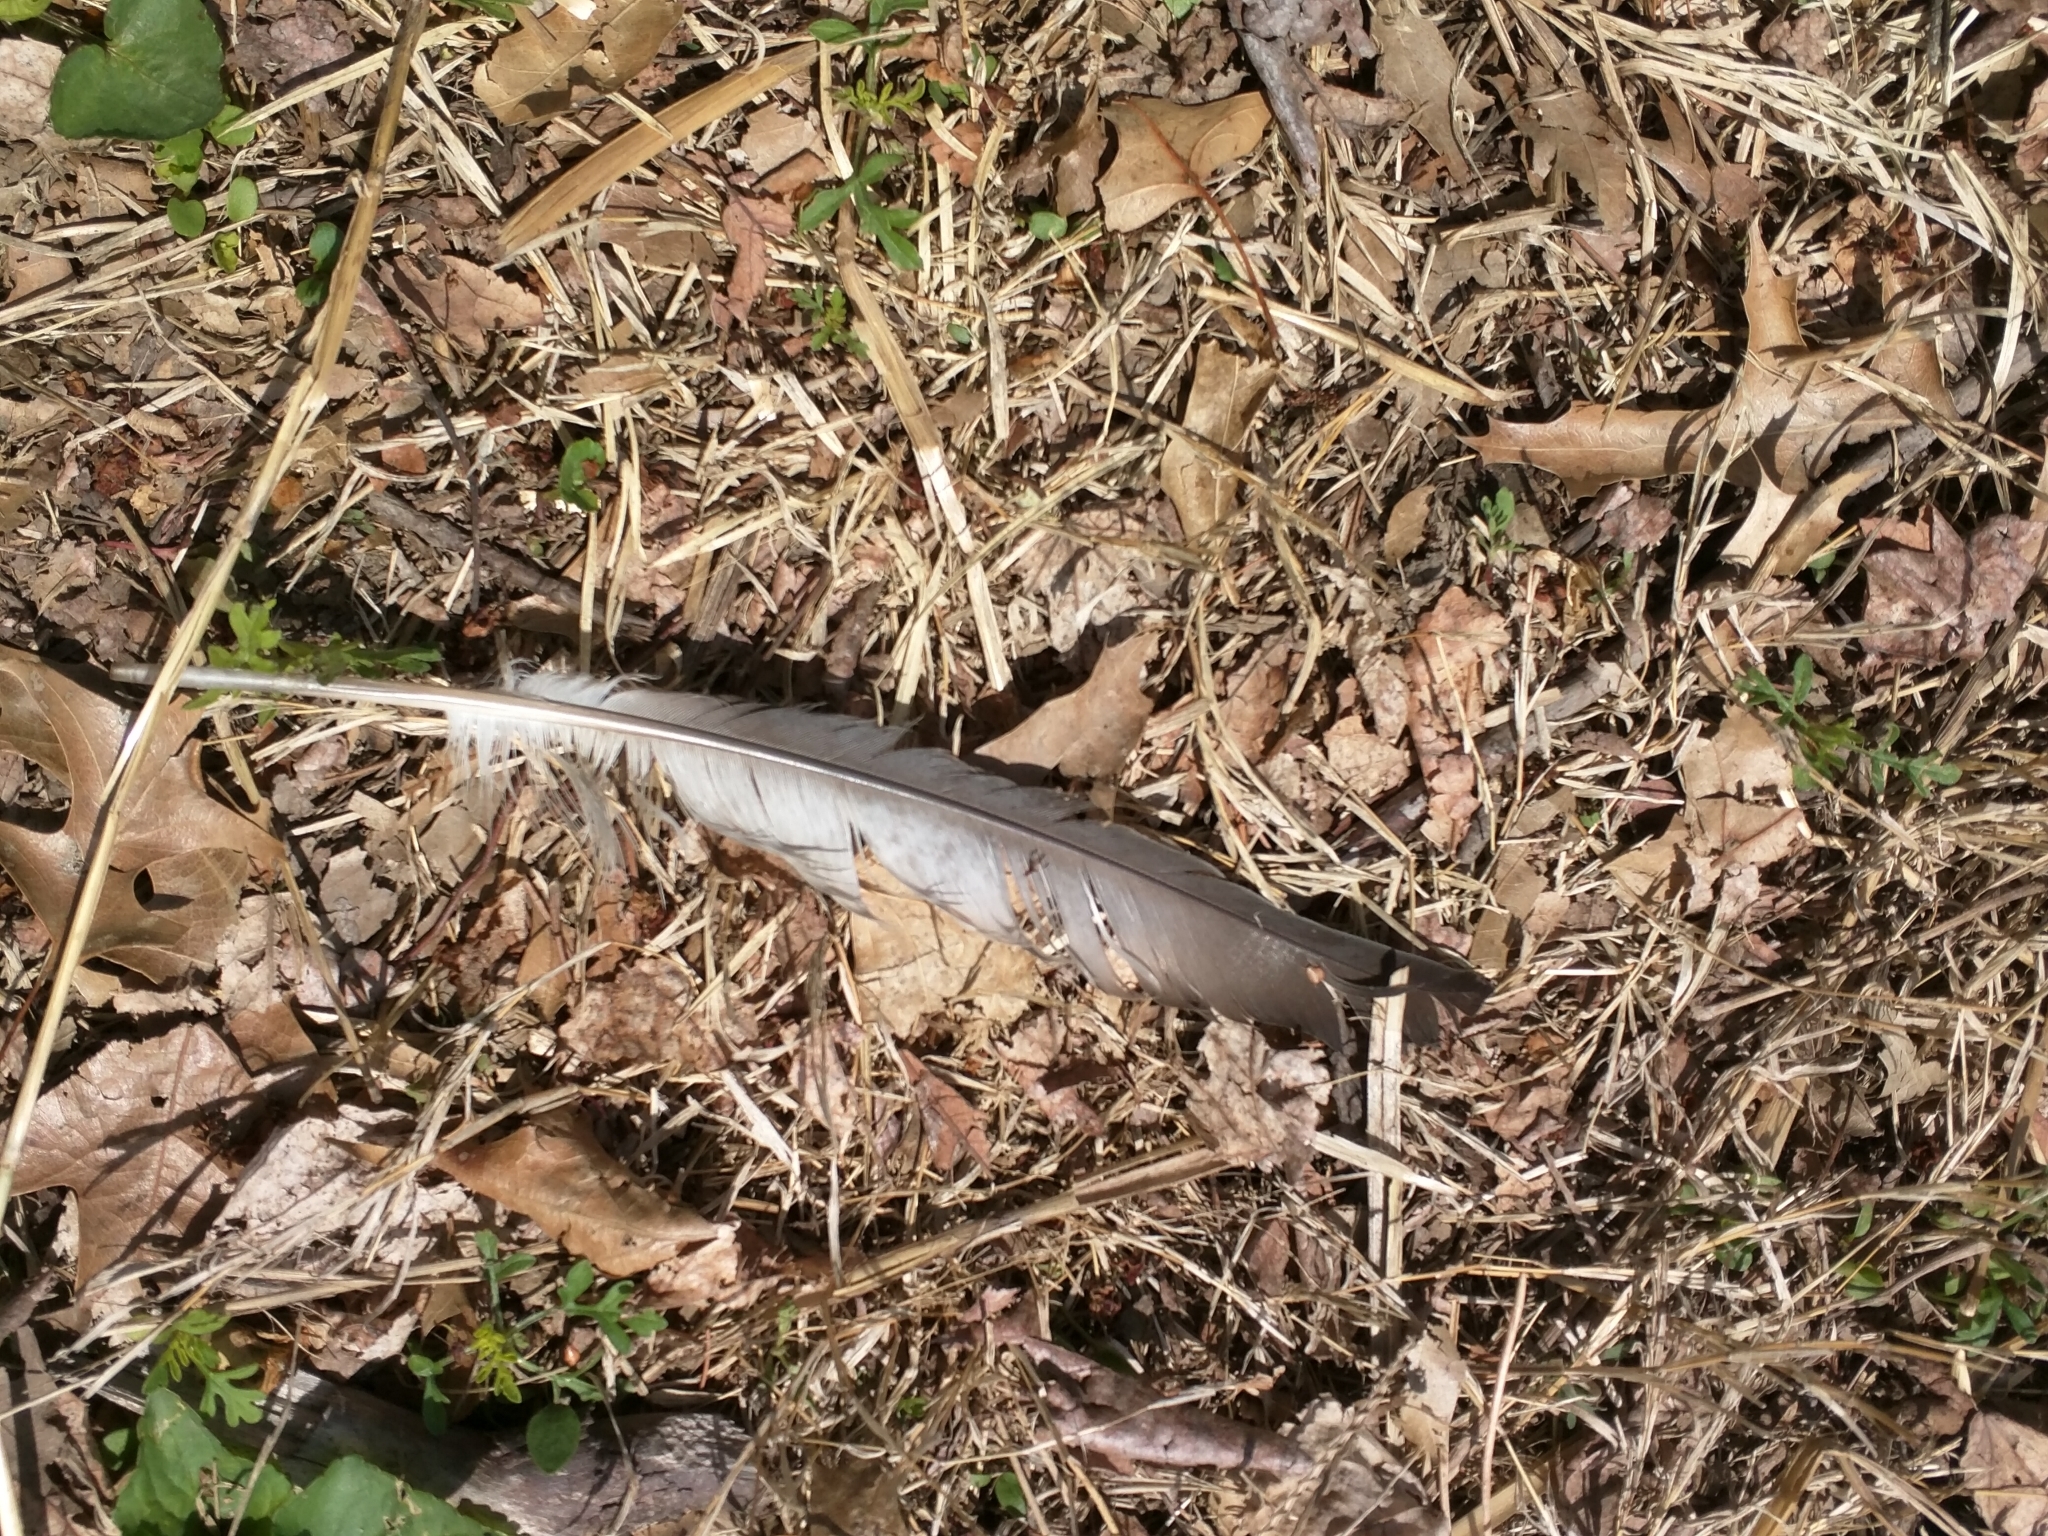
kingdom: Animalia
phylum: Chordata
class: Aves
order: Anseriformes
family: Anatidae
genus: Branta
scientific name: Branta canadensis
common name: Canada goose
